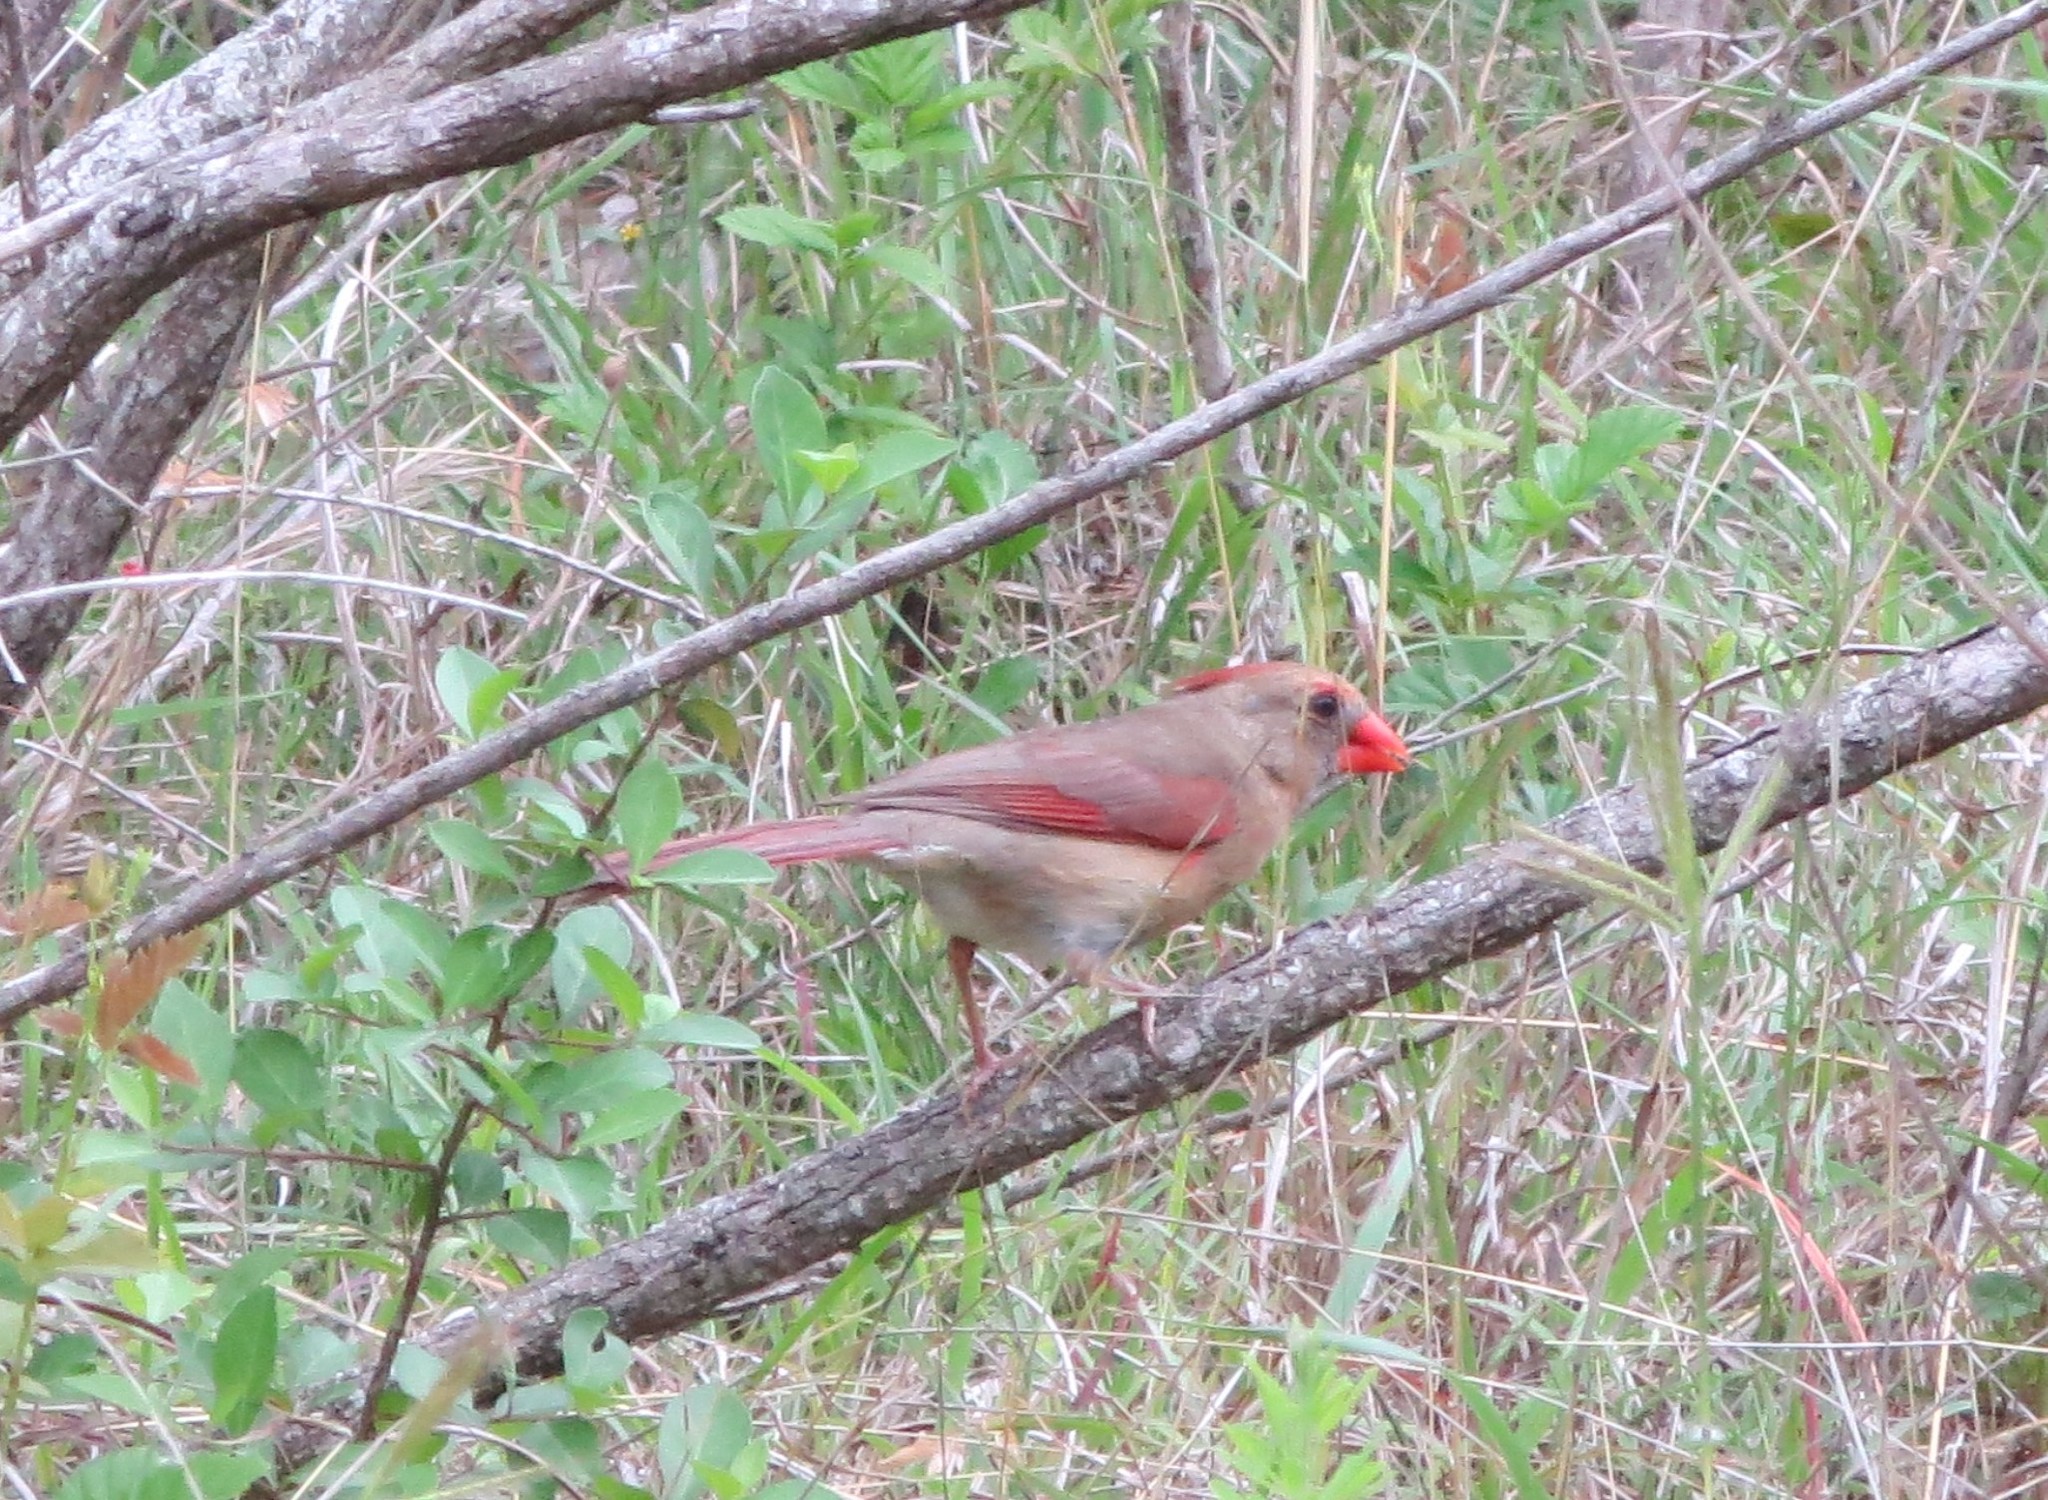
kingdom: Animalia
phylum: Chordata
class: Aves
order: Passeriformes
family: Cardinalidae
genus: Cardinalis
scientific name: Cardinalis cardinalis
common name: Northern cardinal
